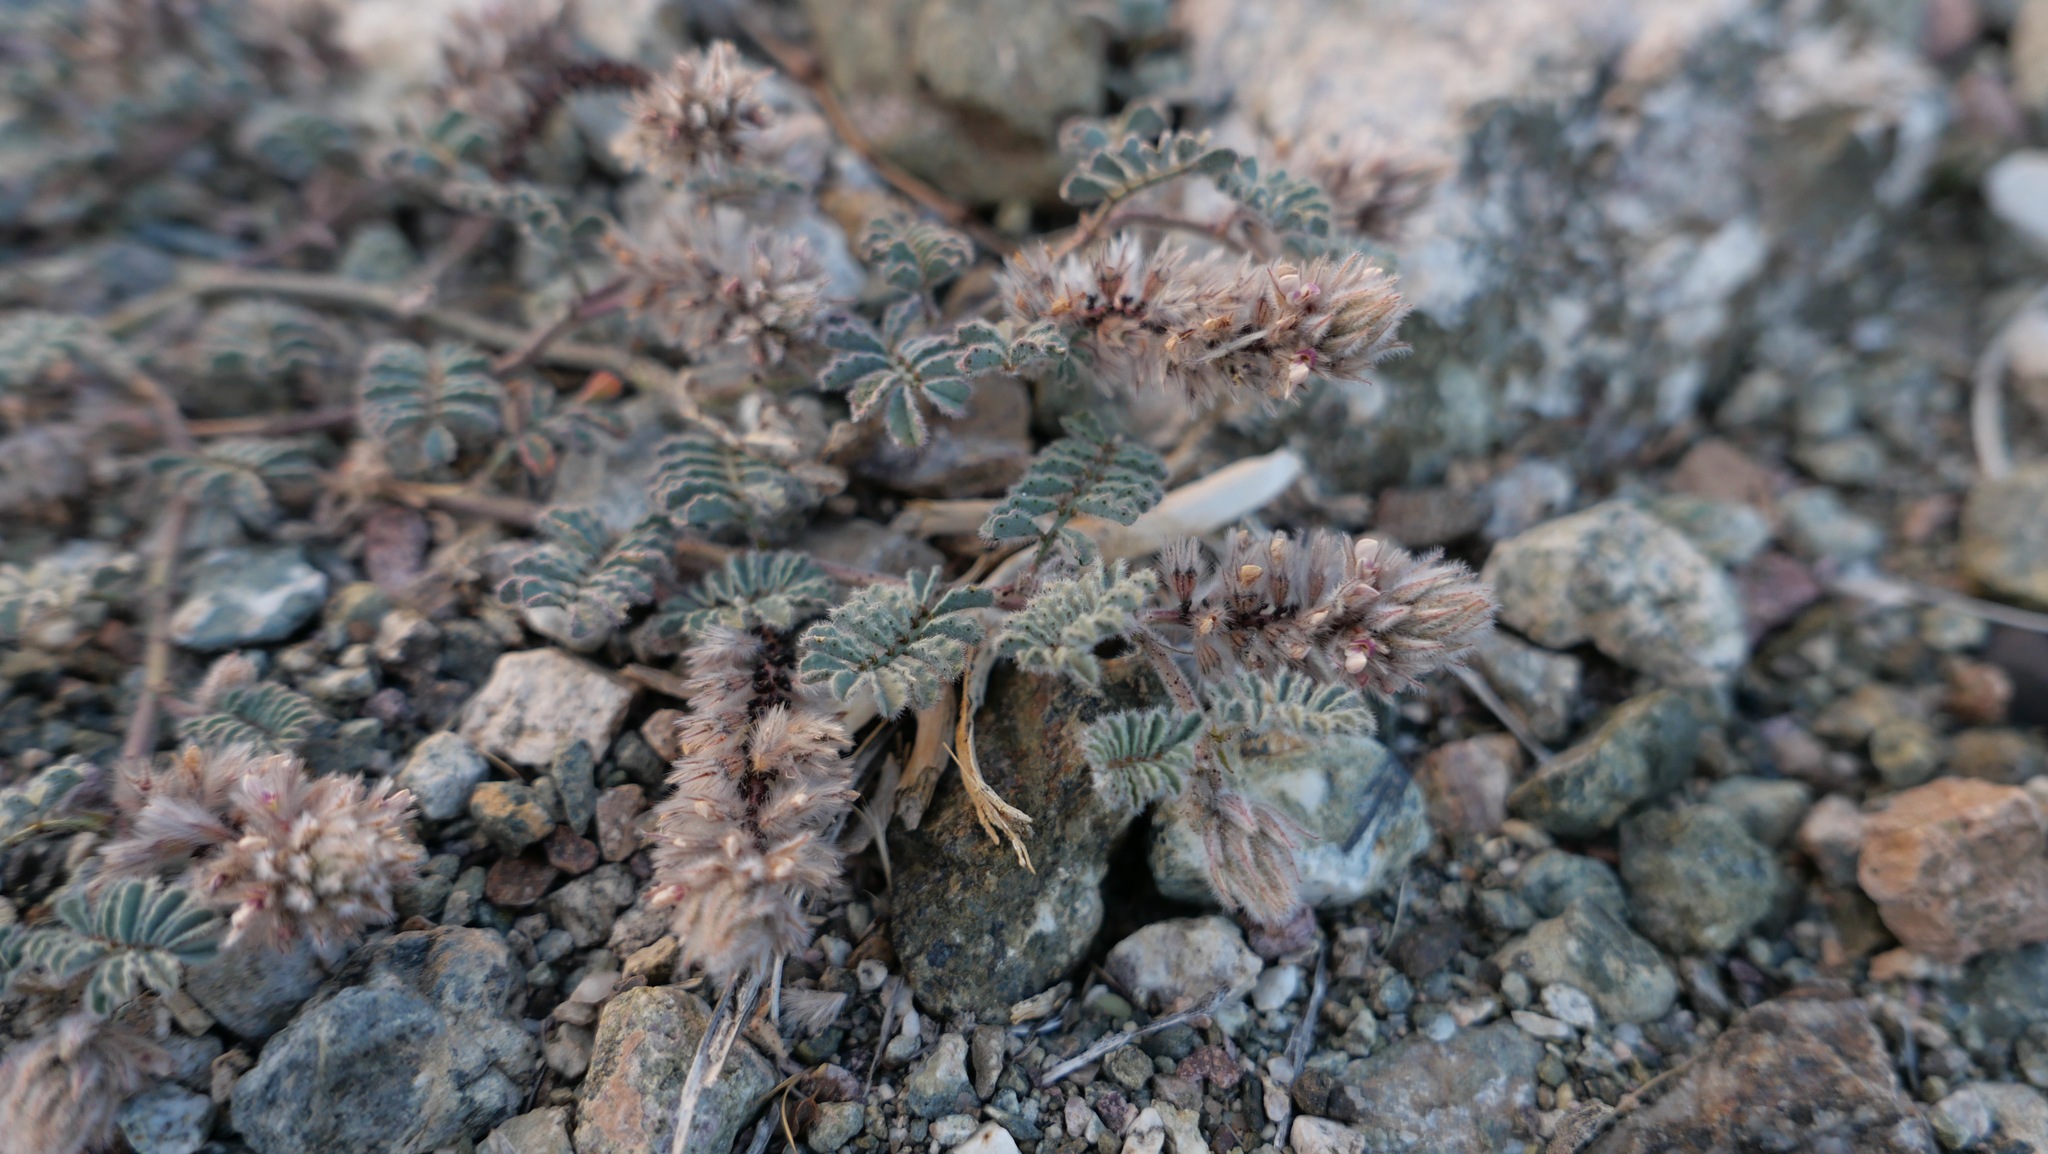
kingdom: Plantae
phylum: Tracheophyta
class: Magnoliopsida
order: Fabales
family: Fabaceae
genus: Dalea
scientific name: Dalea mollissima
